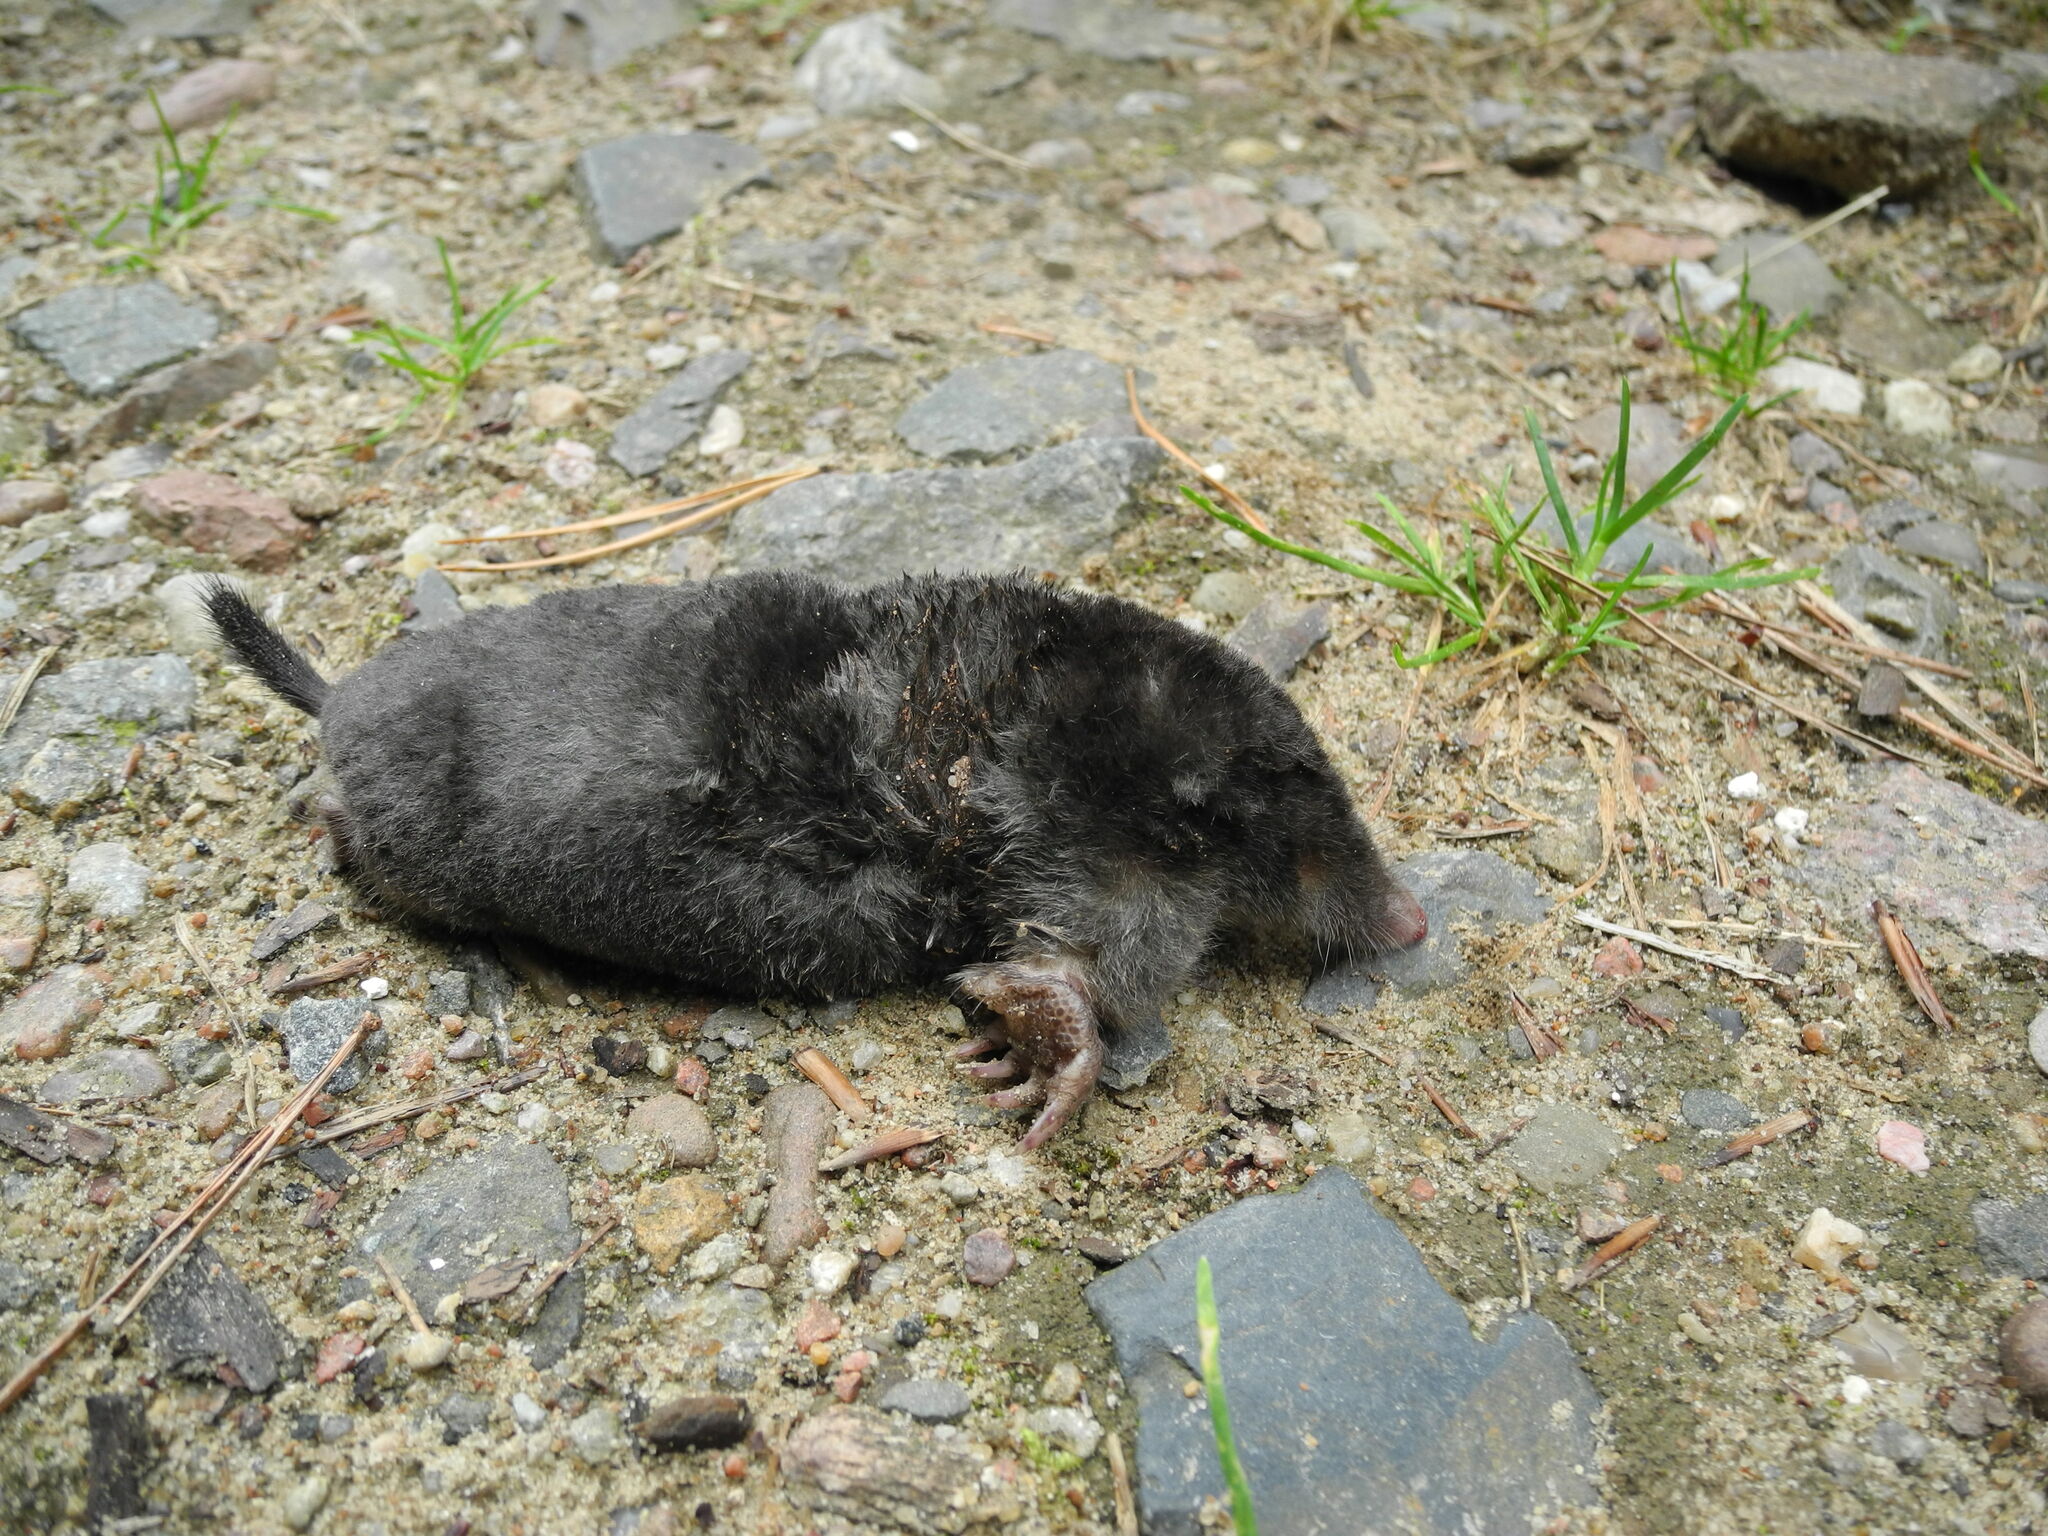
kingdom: Animalia
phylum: Chordata
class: Mammalia
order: Soricomorpha
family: Talpidae
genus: Talpa
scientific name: Talpa europaea
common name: European mole
